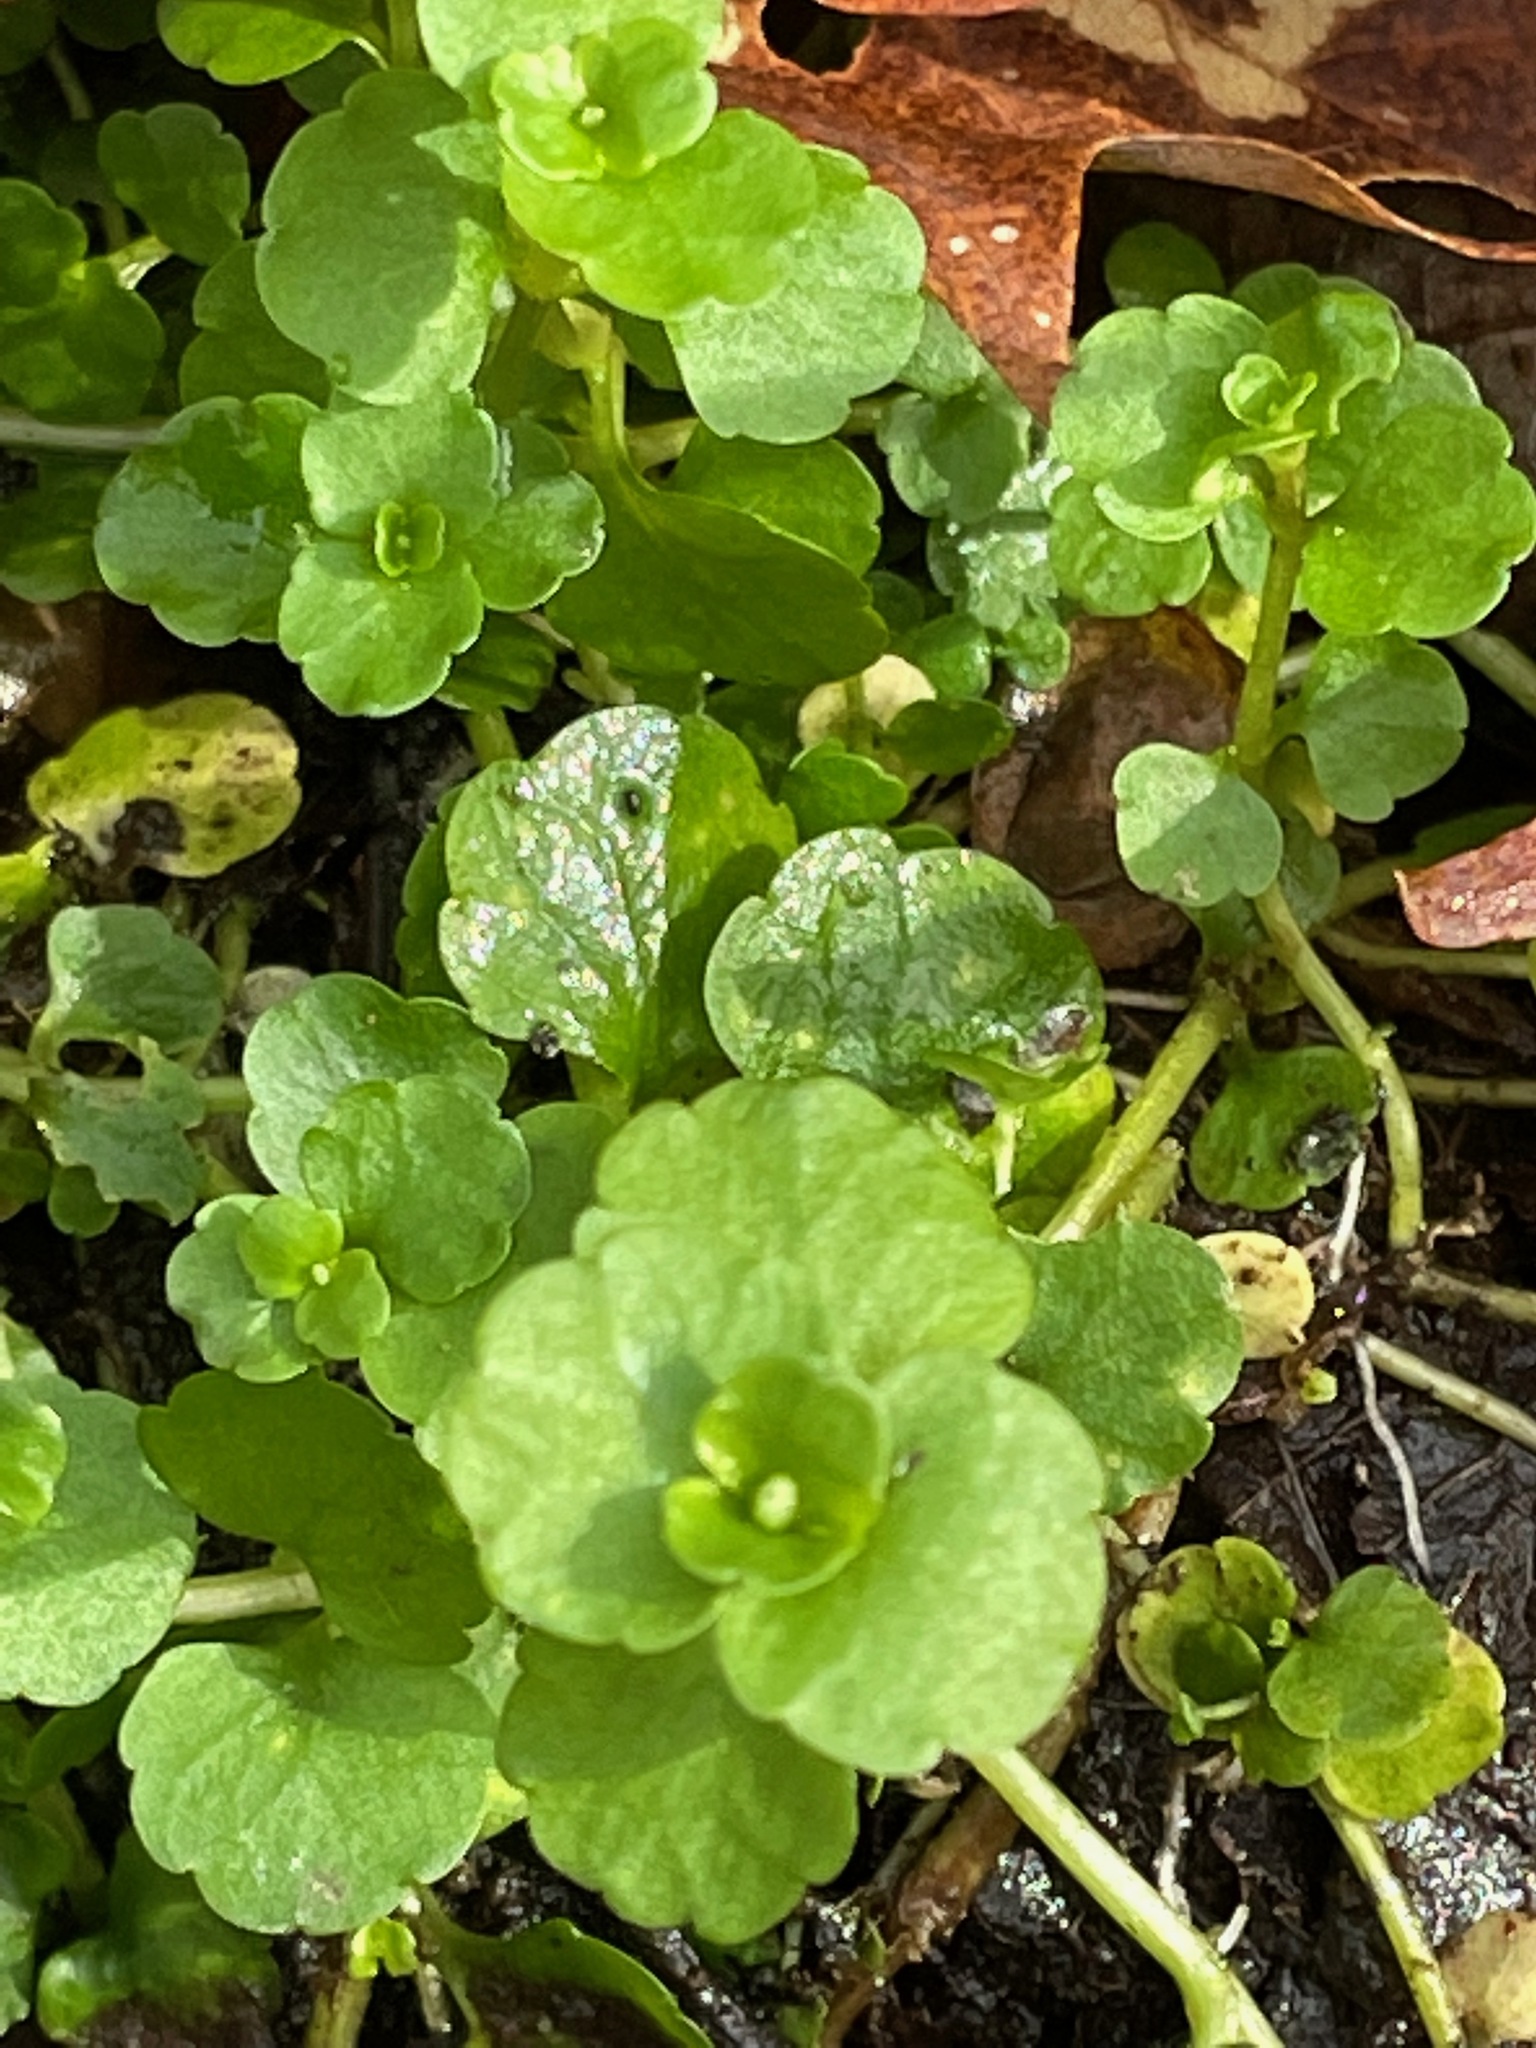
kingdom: Plantae
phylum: Tracheophyta
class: Magnoliopsida
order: Saxifragales
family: Saxifragaceae
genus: Chrysosplenium
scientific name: Chrysosplenium americanum
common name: American golden-saxifrage
